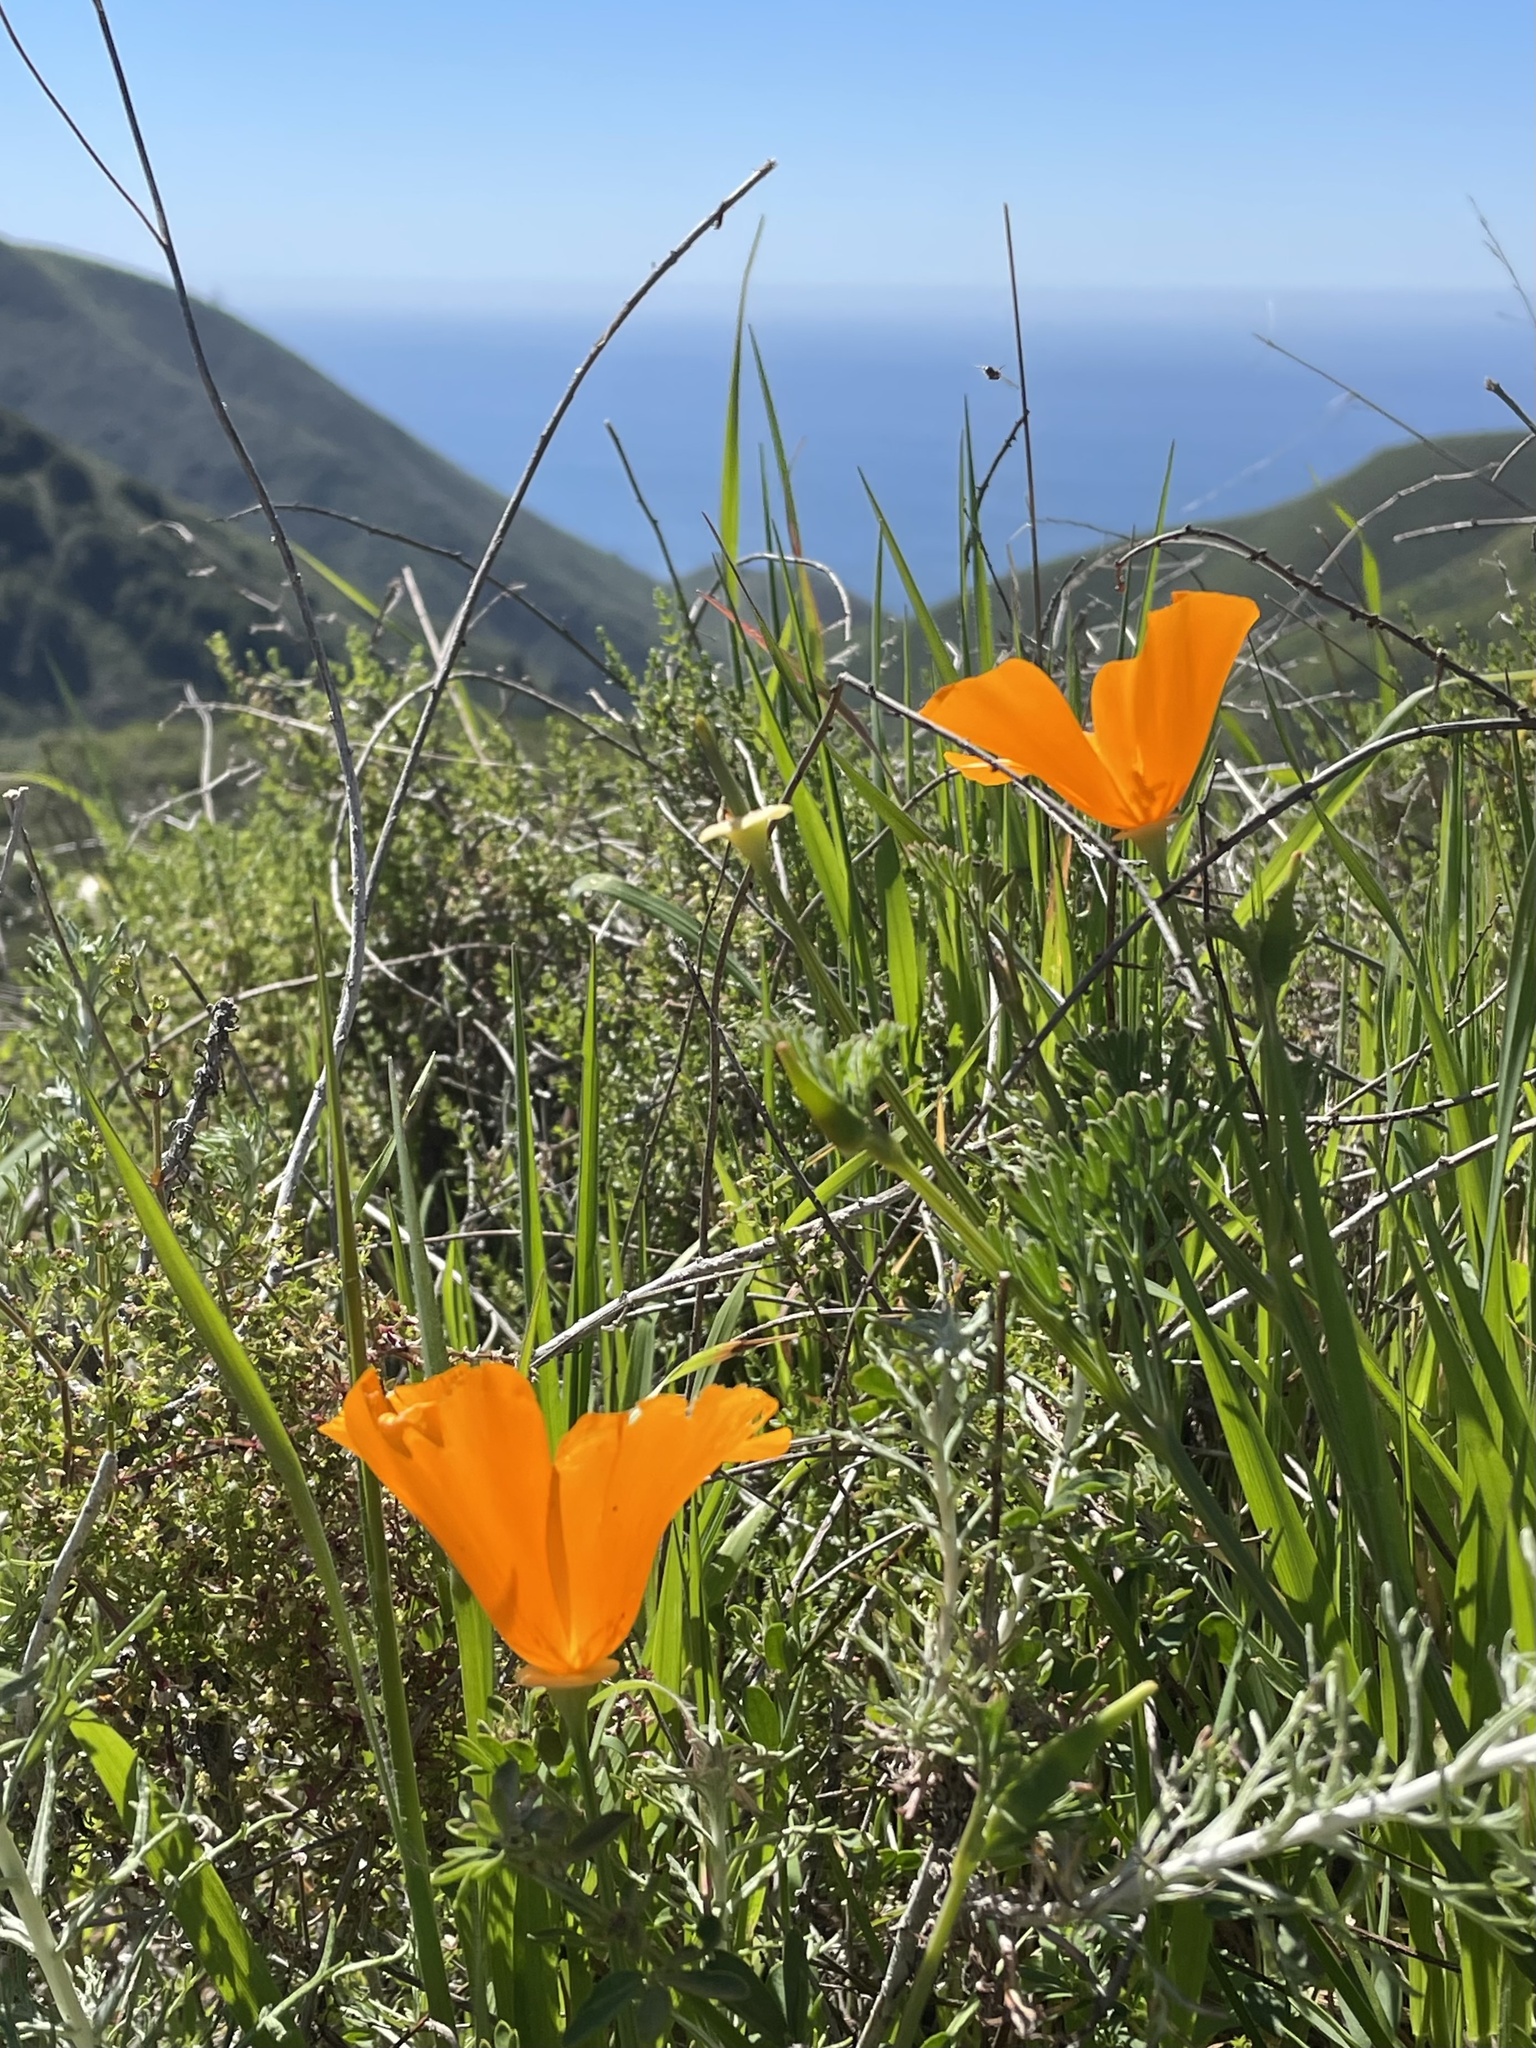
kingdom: Plantae
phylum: Tracheophyta
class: Magnoliopsida
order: Ranunculales
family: Papaveraceae
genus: Eschscholzia
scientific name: Eschscholzia californica
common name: California poppy
